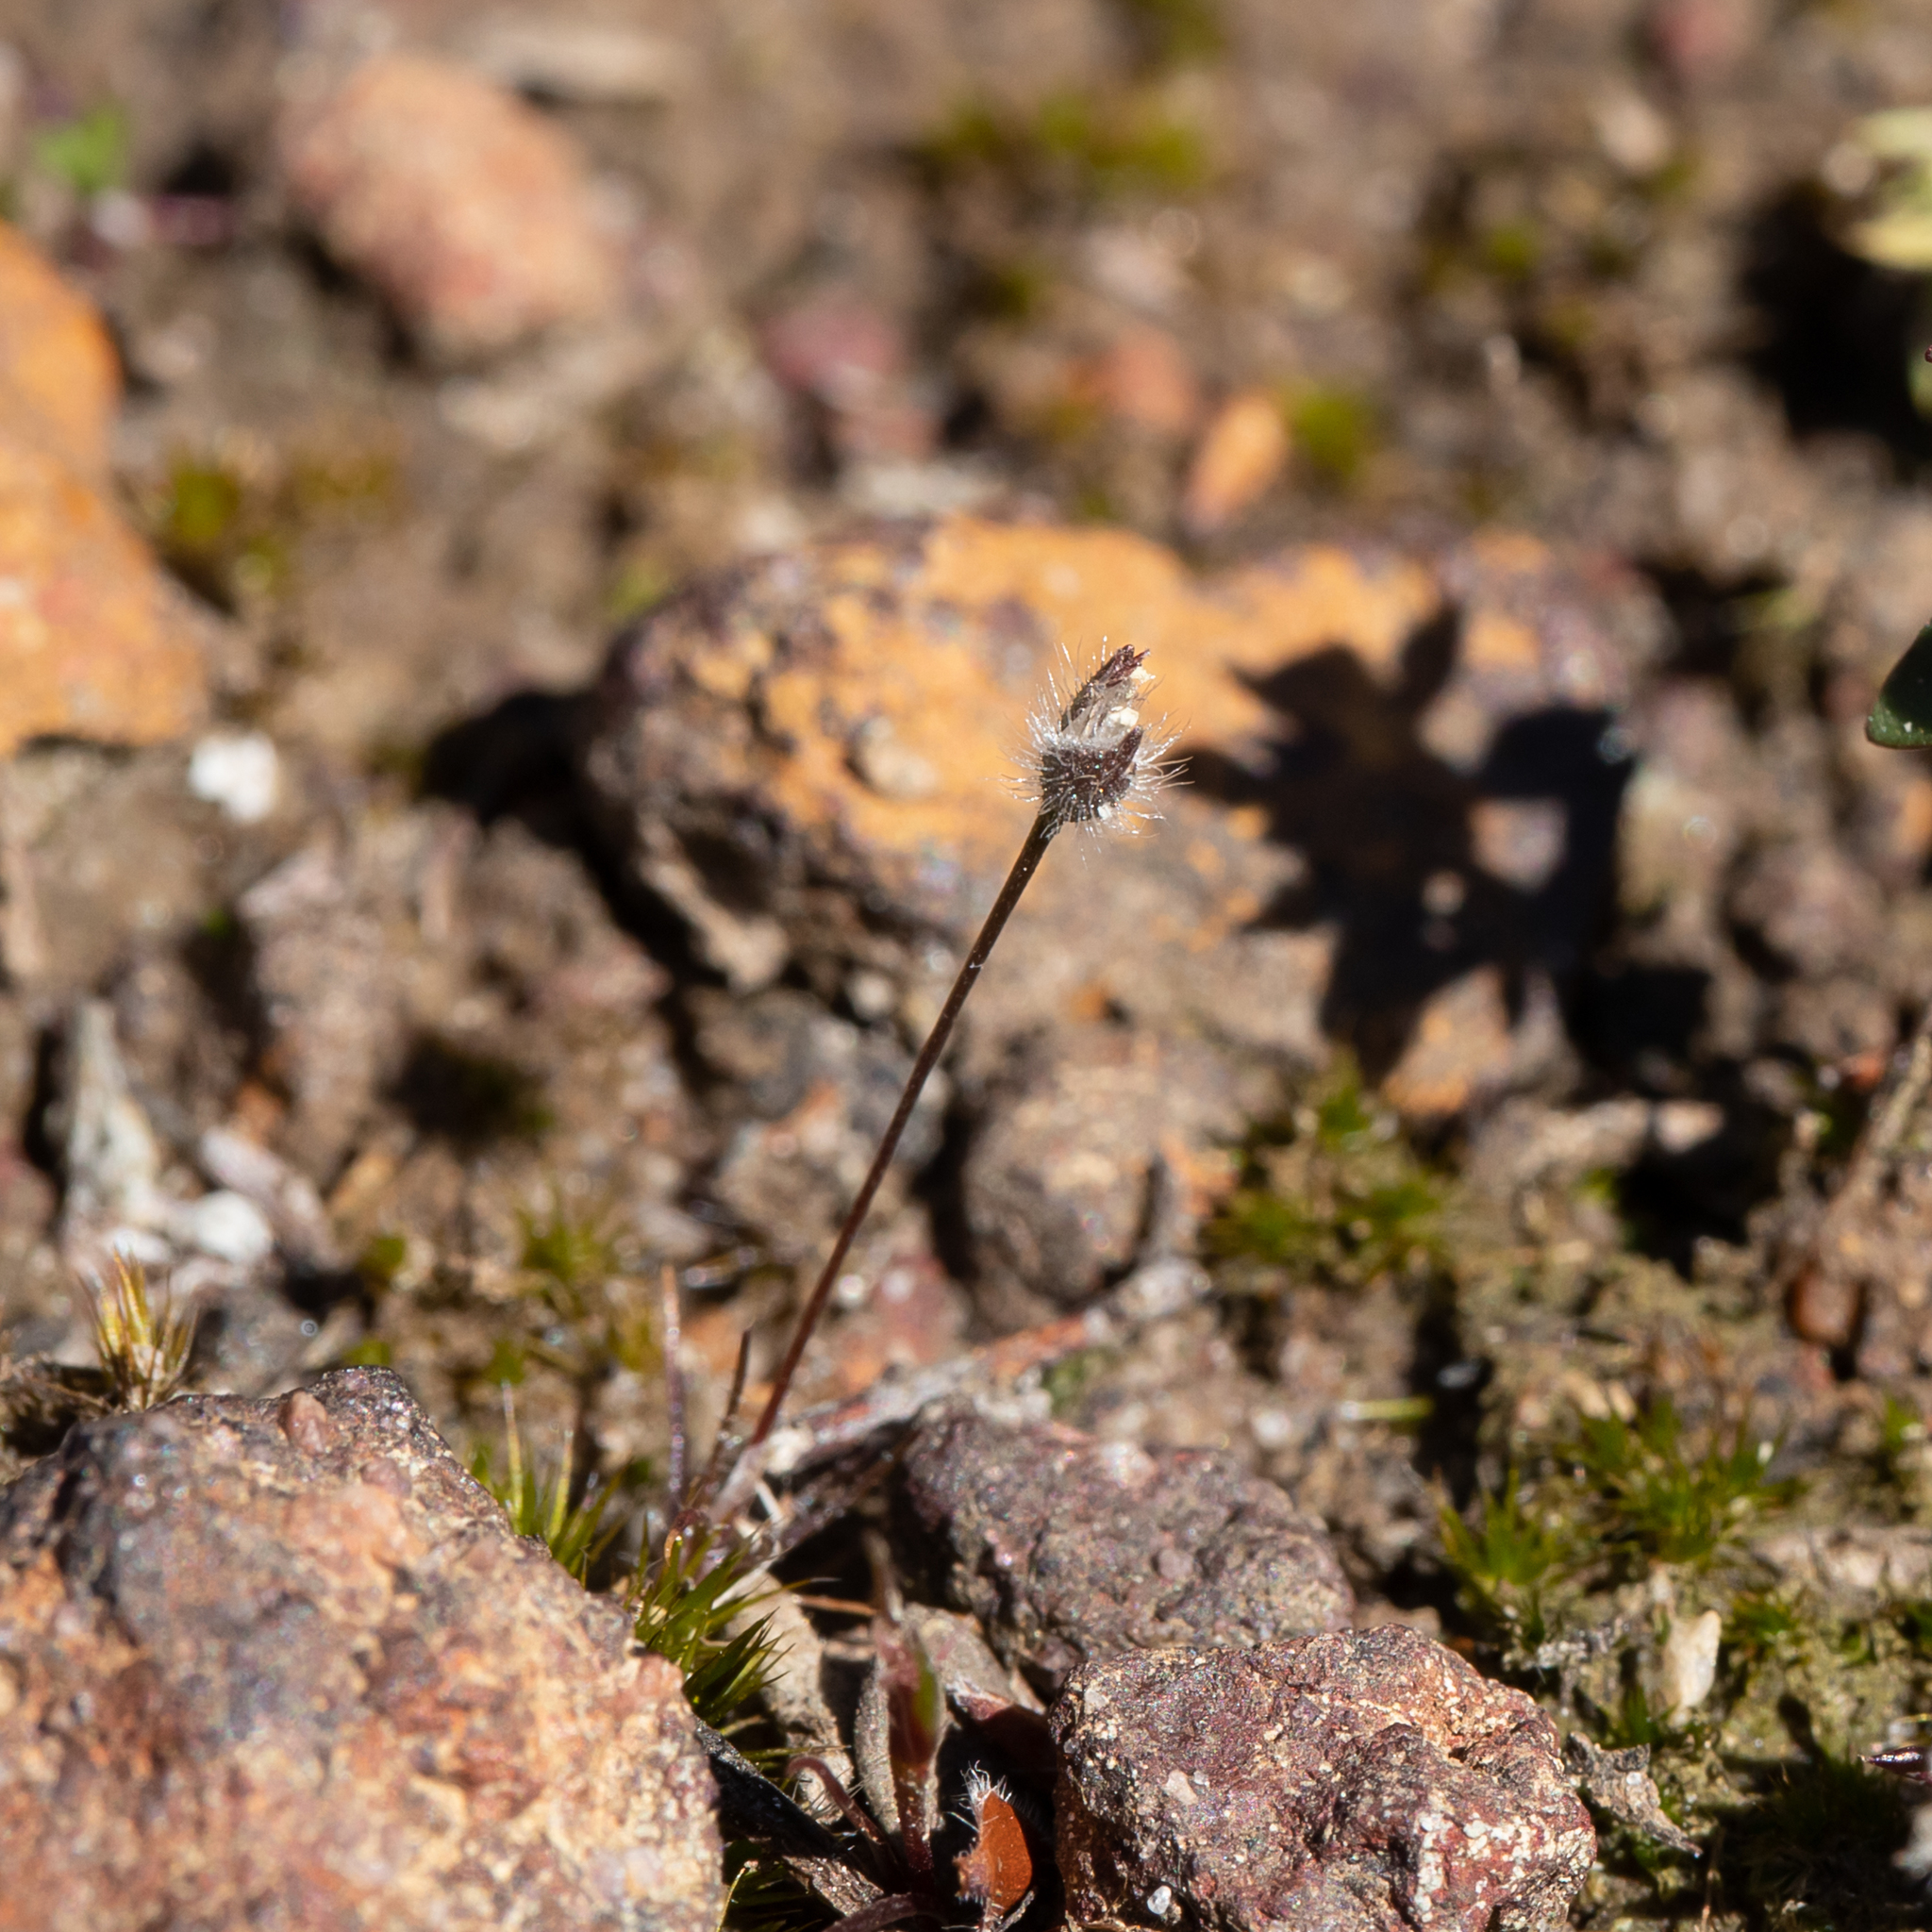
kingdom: Plantae
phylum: Tracheophyta
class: Liliopsida
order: Poales
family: Restionaceae
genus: Centrolepis
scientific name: Centrolepis strigosa
